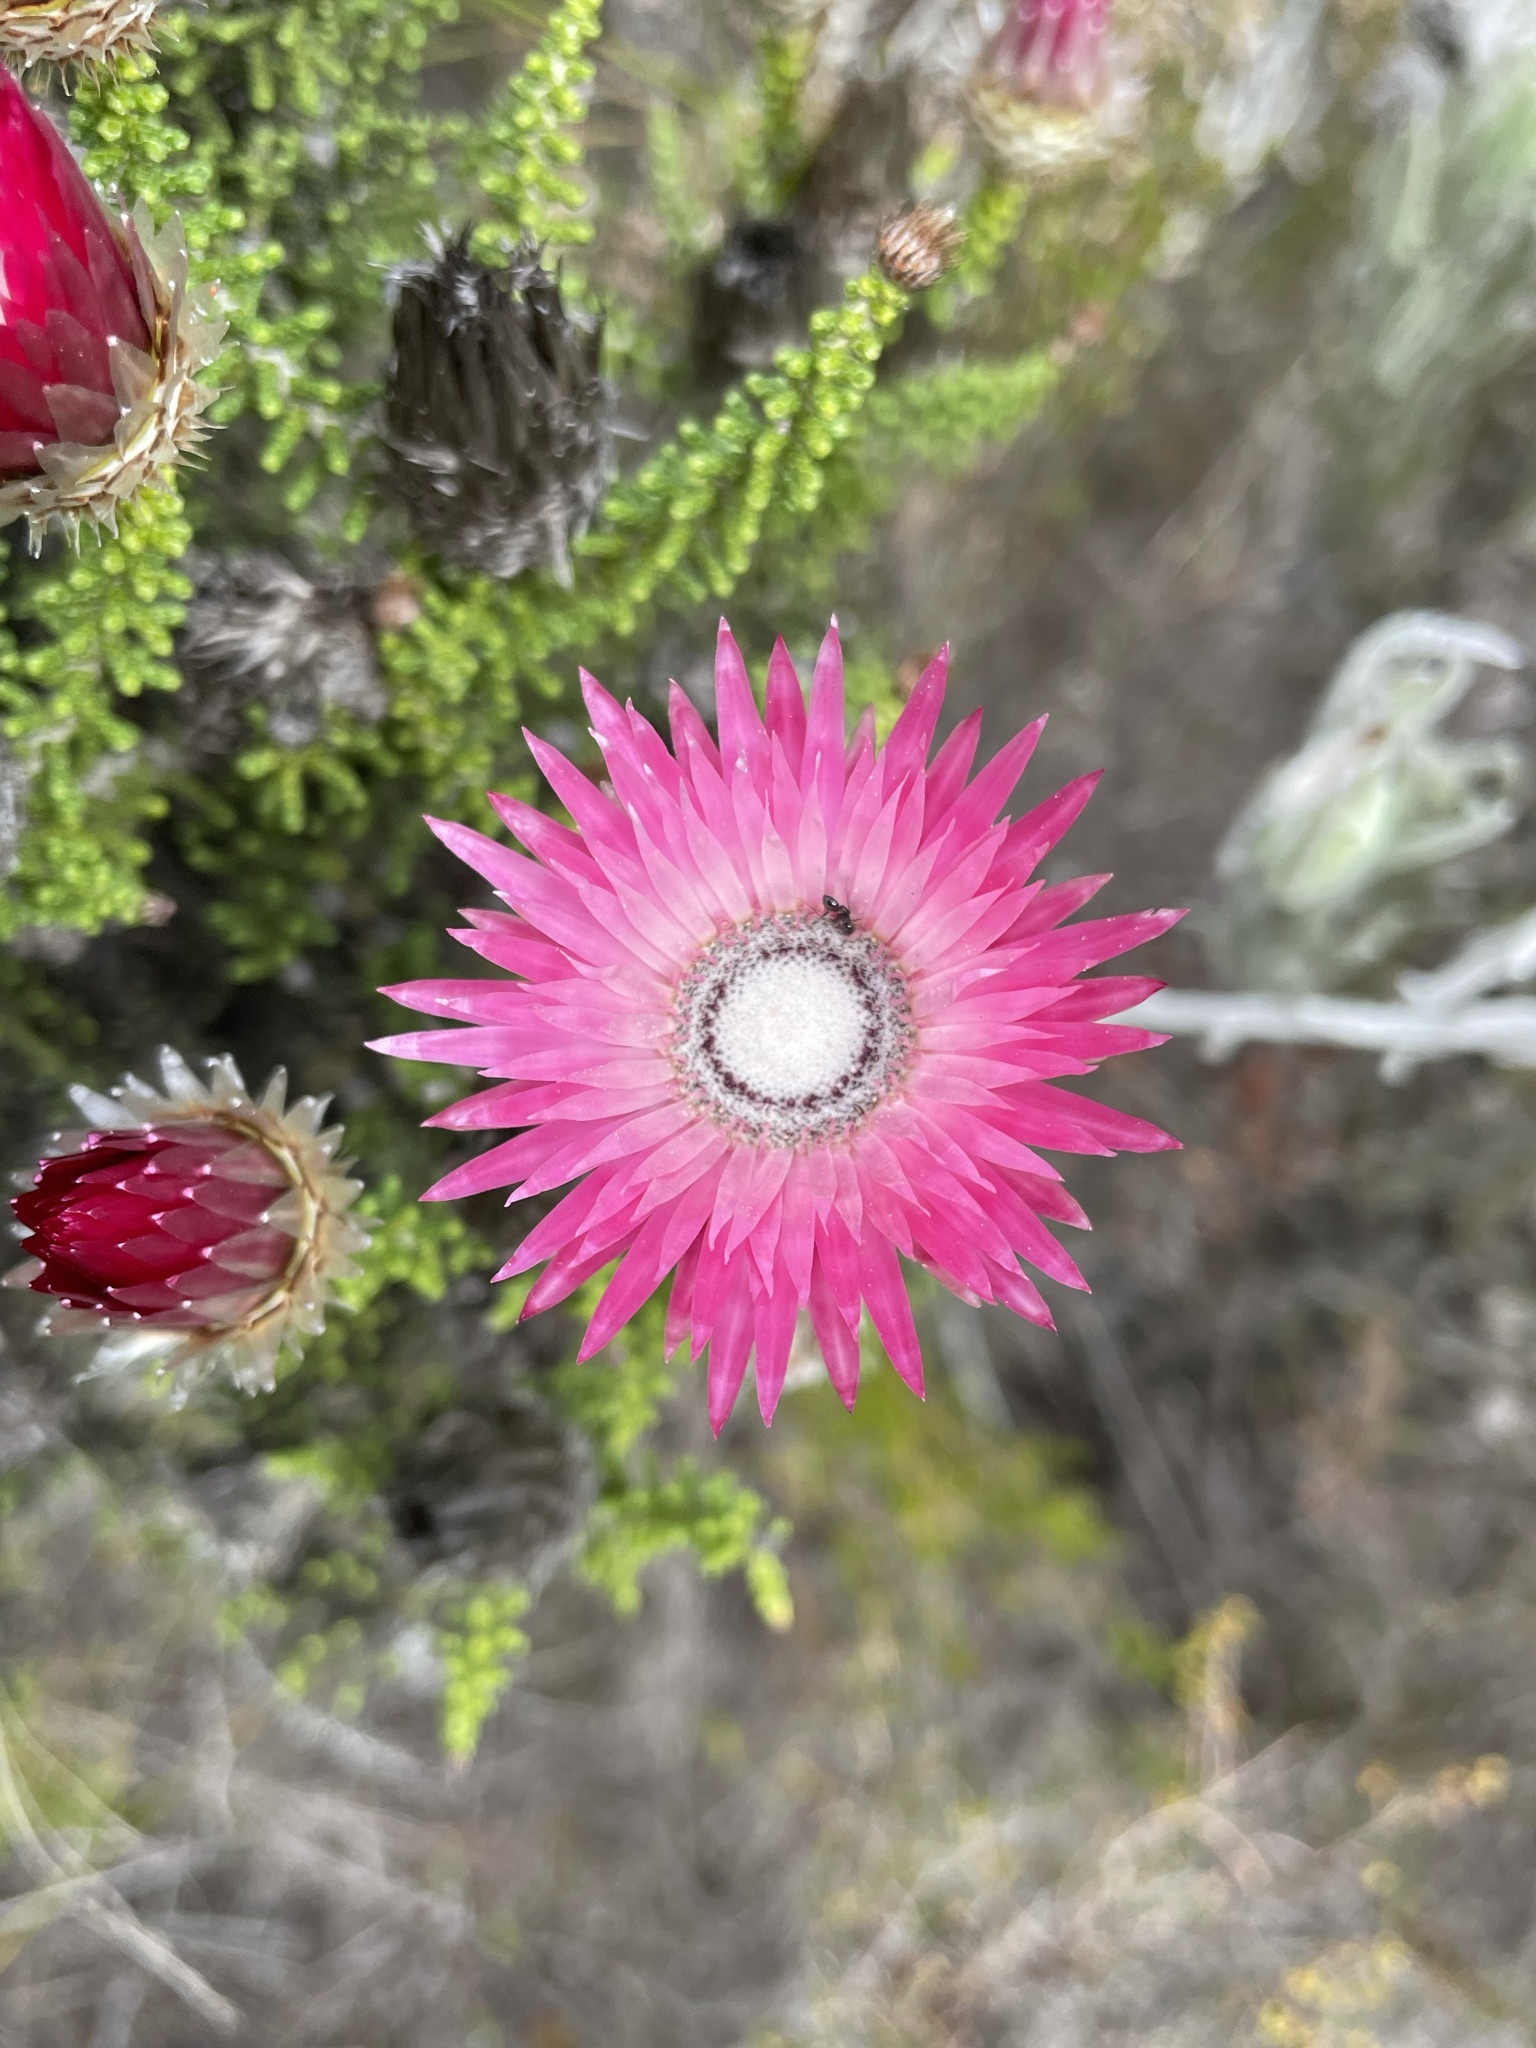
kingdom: Plantae
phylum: Tracheophyta
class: Magnoliopsida
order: Asterales
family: Asteraceae
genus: Phaenocoma
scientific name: Phaenocoma prolifera
